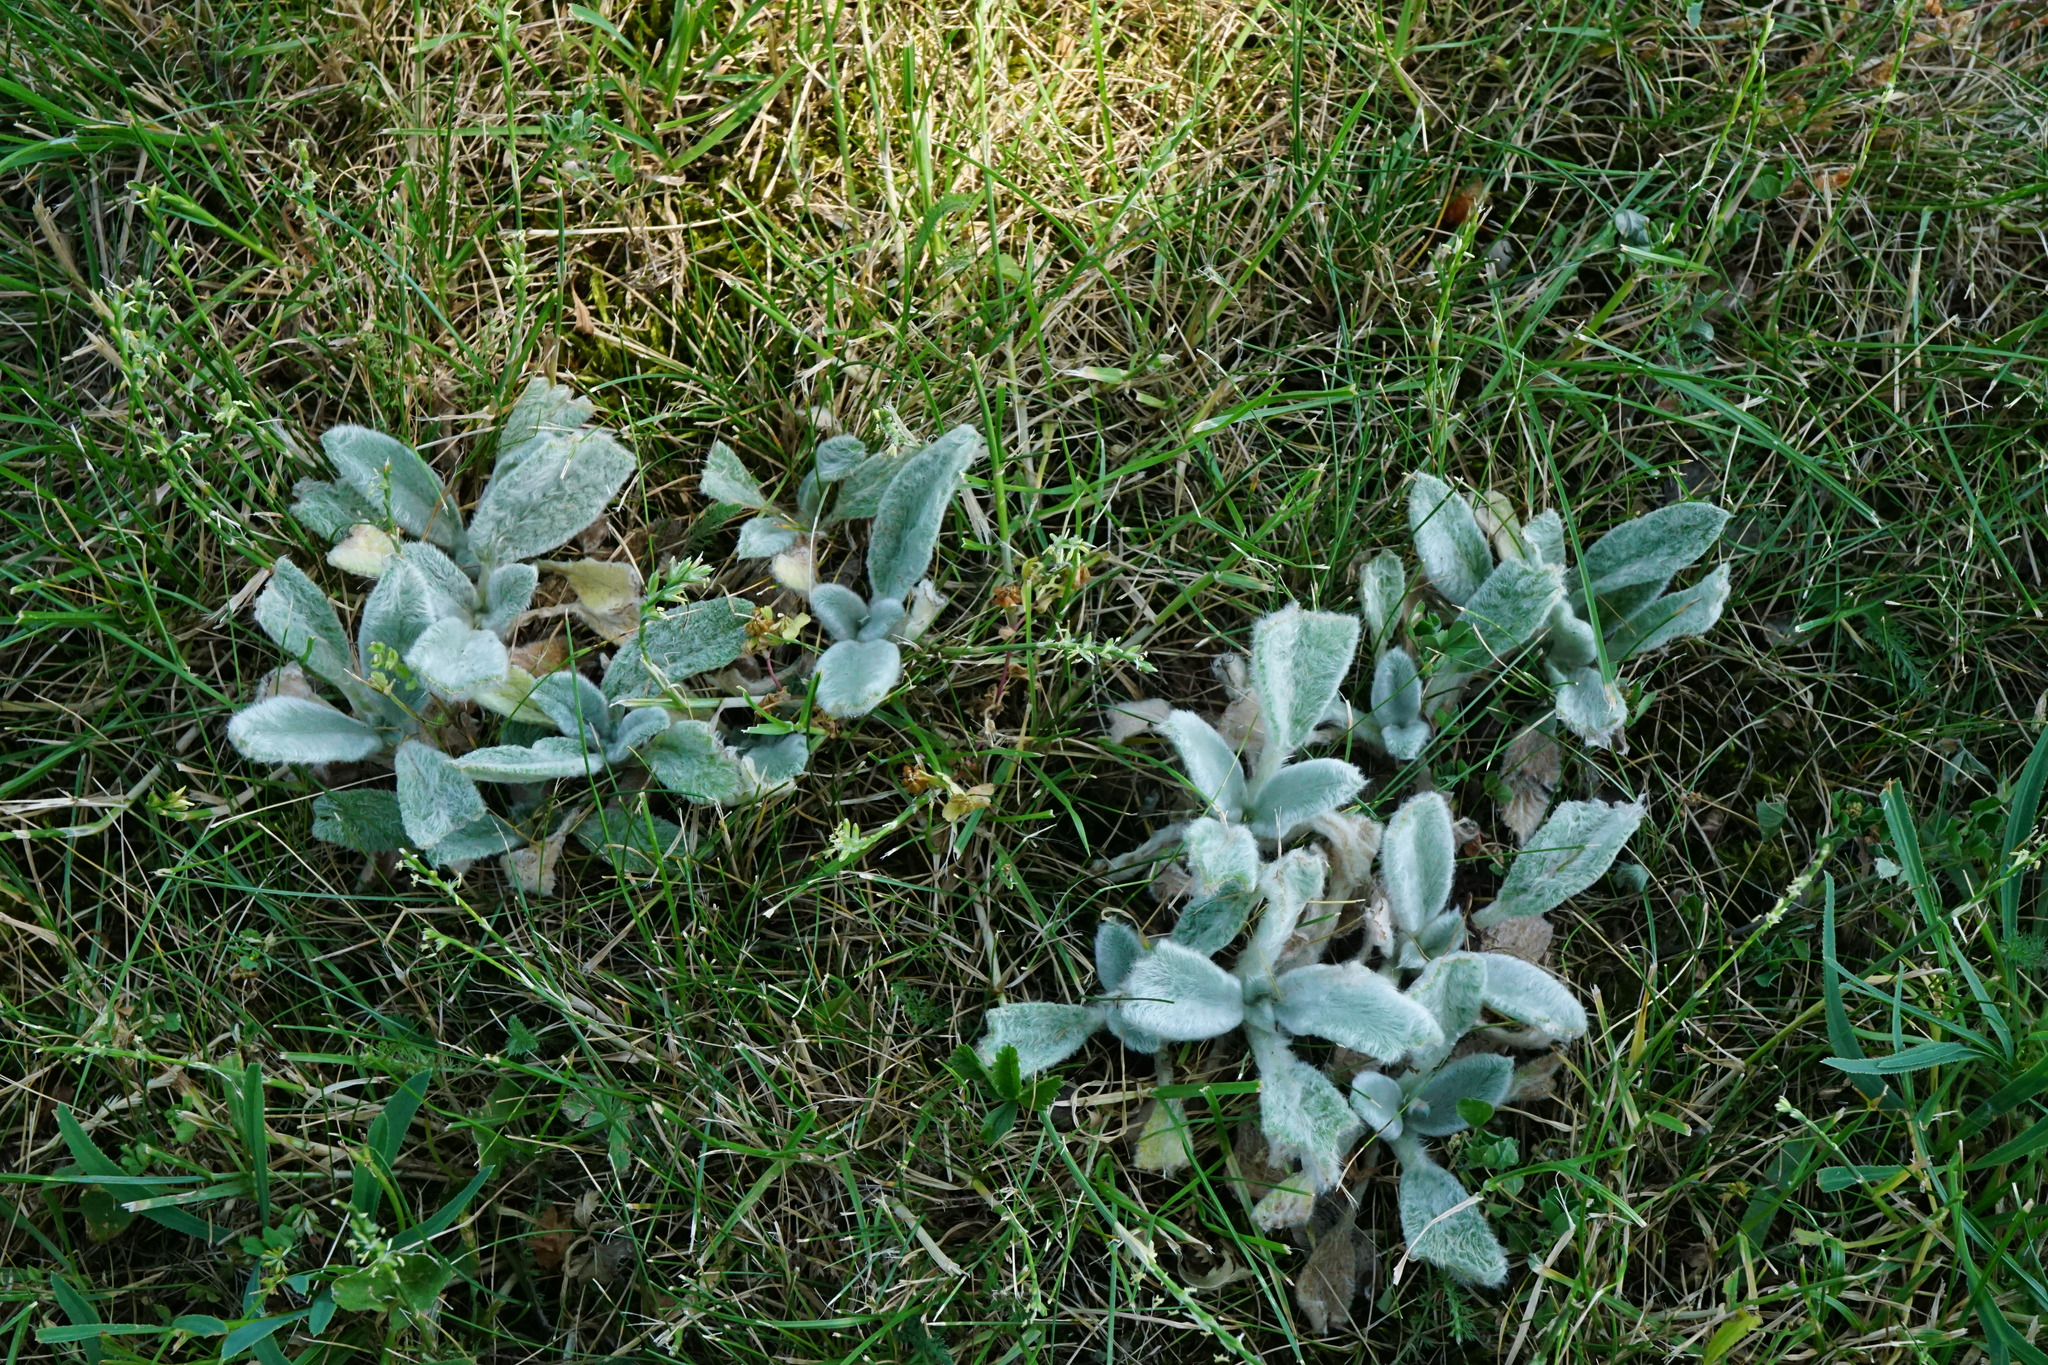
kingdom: Plantae
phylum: Tracheophyta
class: Magnoliopsida
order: Lamiales
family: Lamiaceae
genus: Stachys
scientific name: Stachys byzantina
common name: Lamb's-ear
